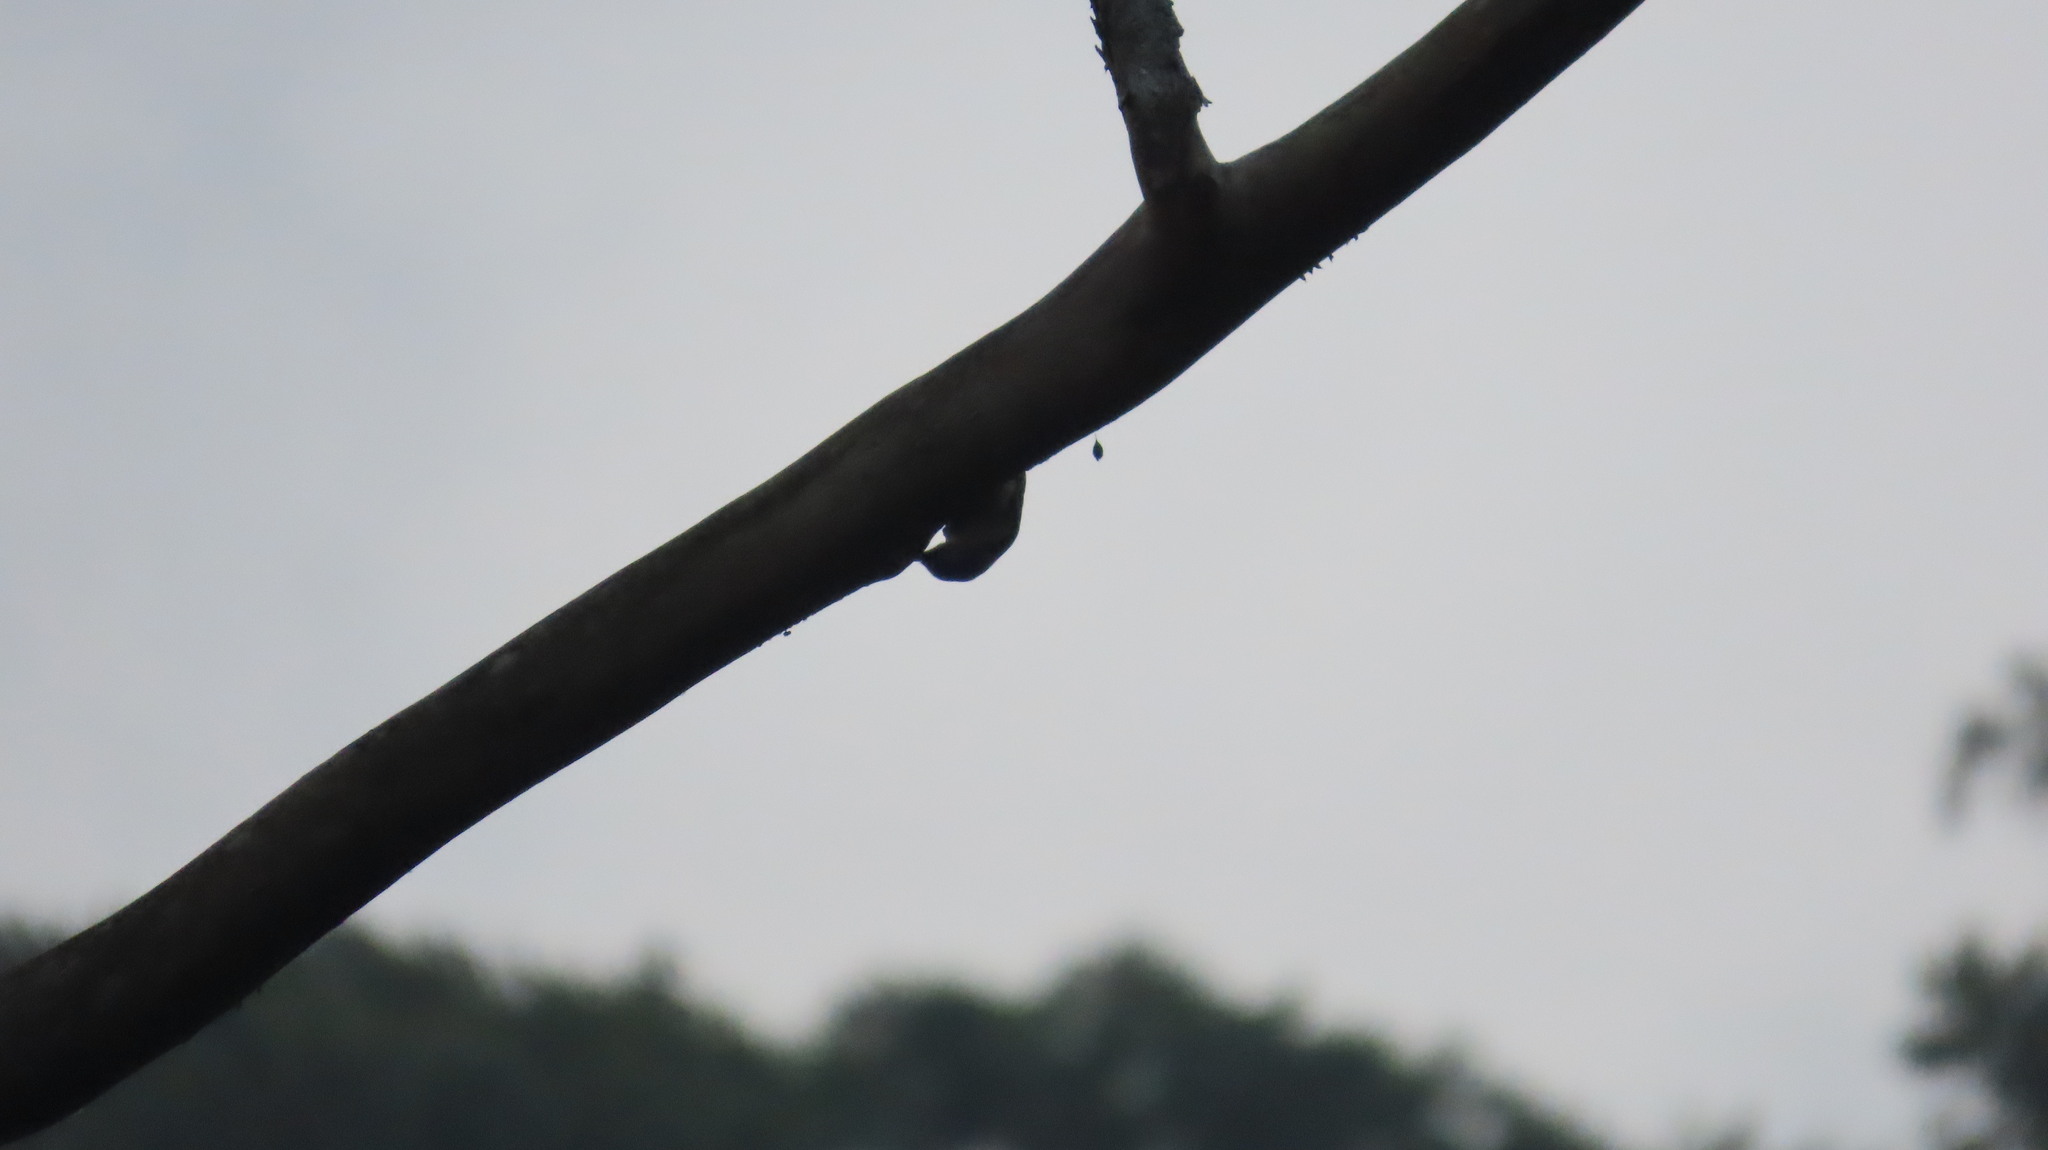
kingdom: Animalia
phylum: Chordata
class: Aves
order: Passeriformes
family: Sittidae
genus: Sitta
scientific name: Sitta frontalis
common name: Velvet-fronted nuthatch
